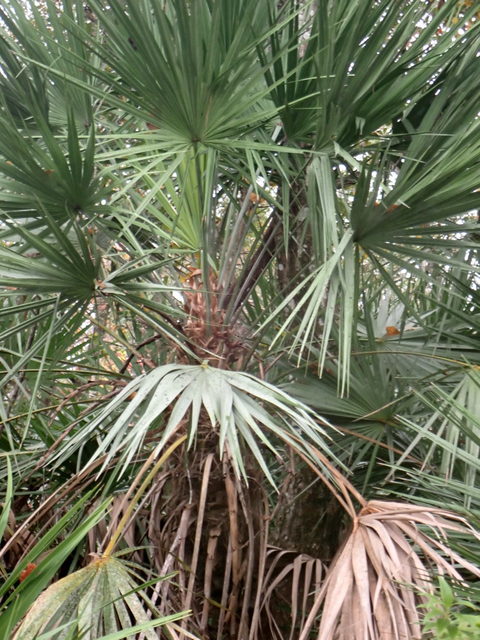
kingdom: Plantae
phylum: Tracheophyta
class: Liliopsida
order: Arecales
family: Arecaceae
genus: Serenoa
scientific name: Serenoa repens
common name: Saw-palmetto
